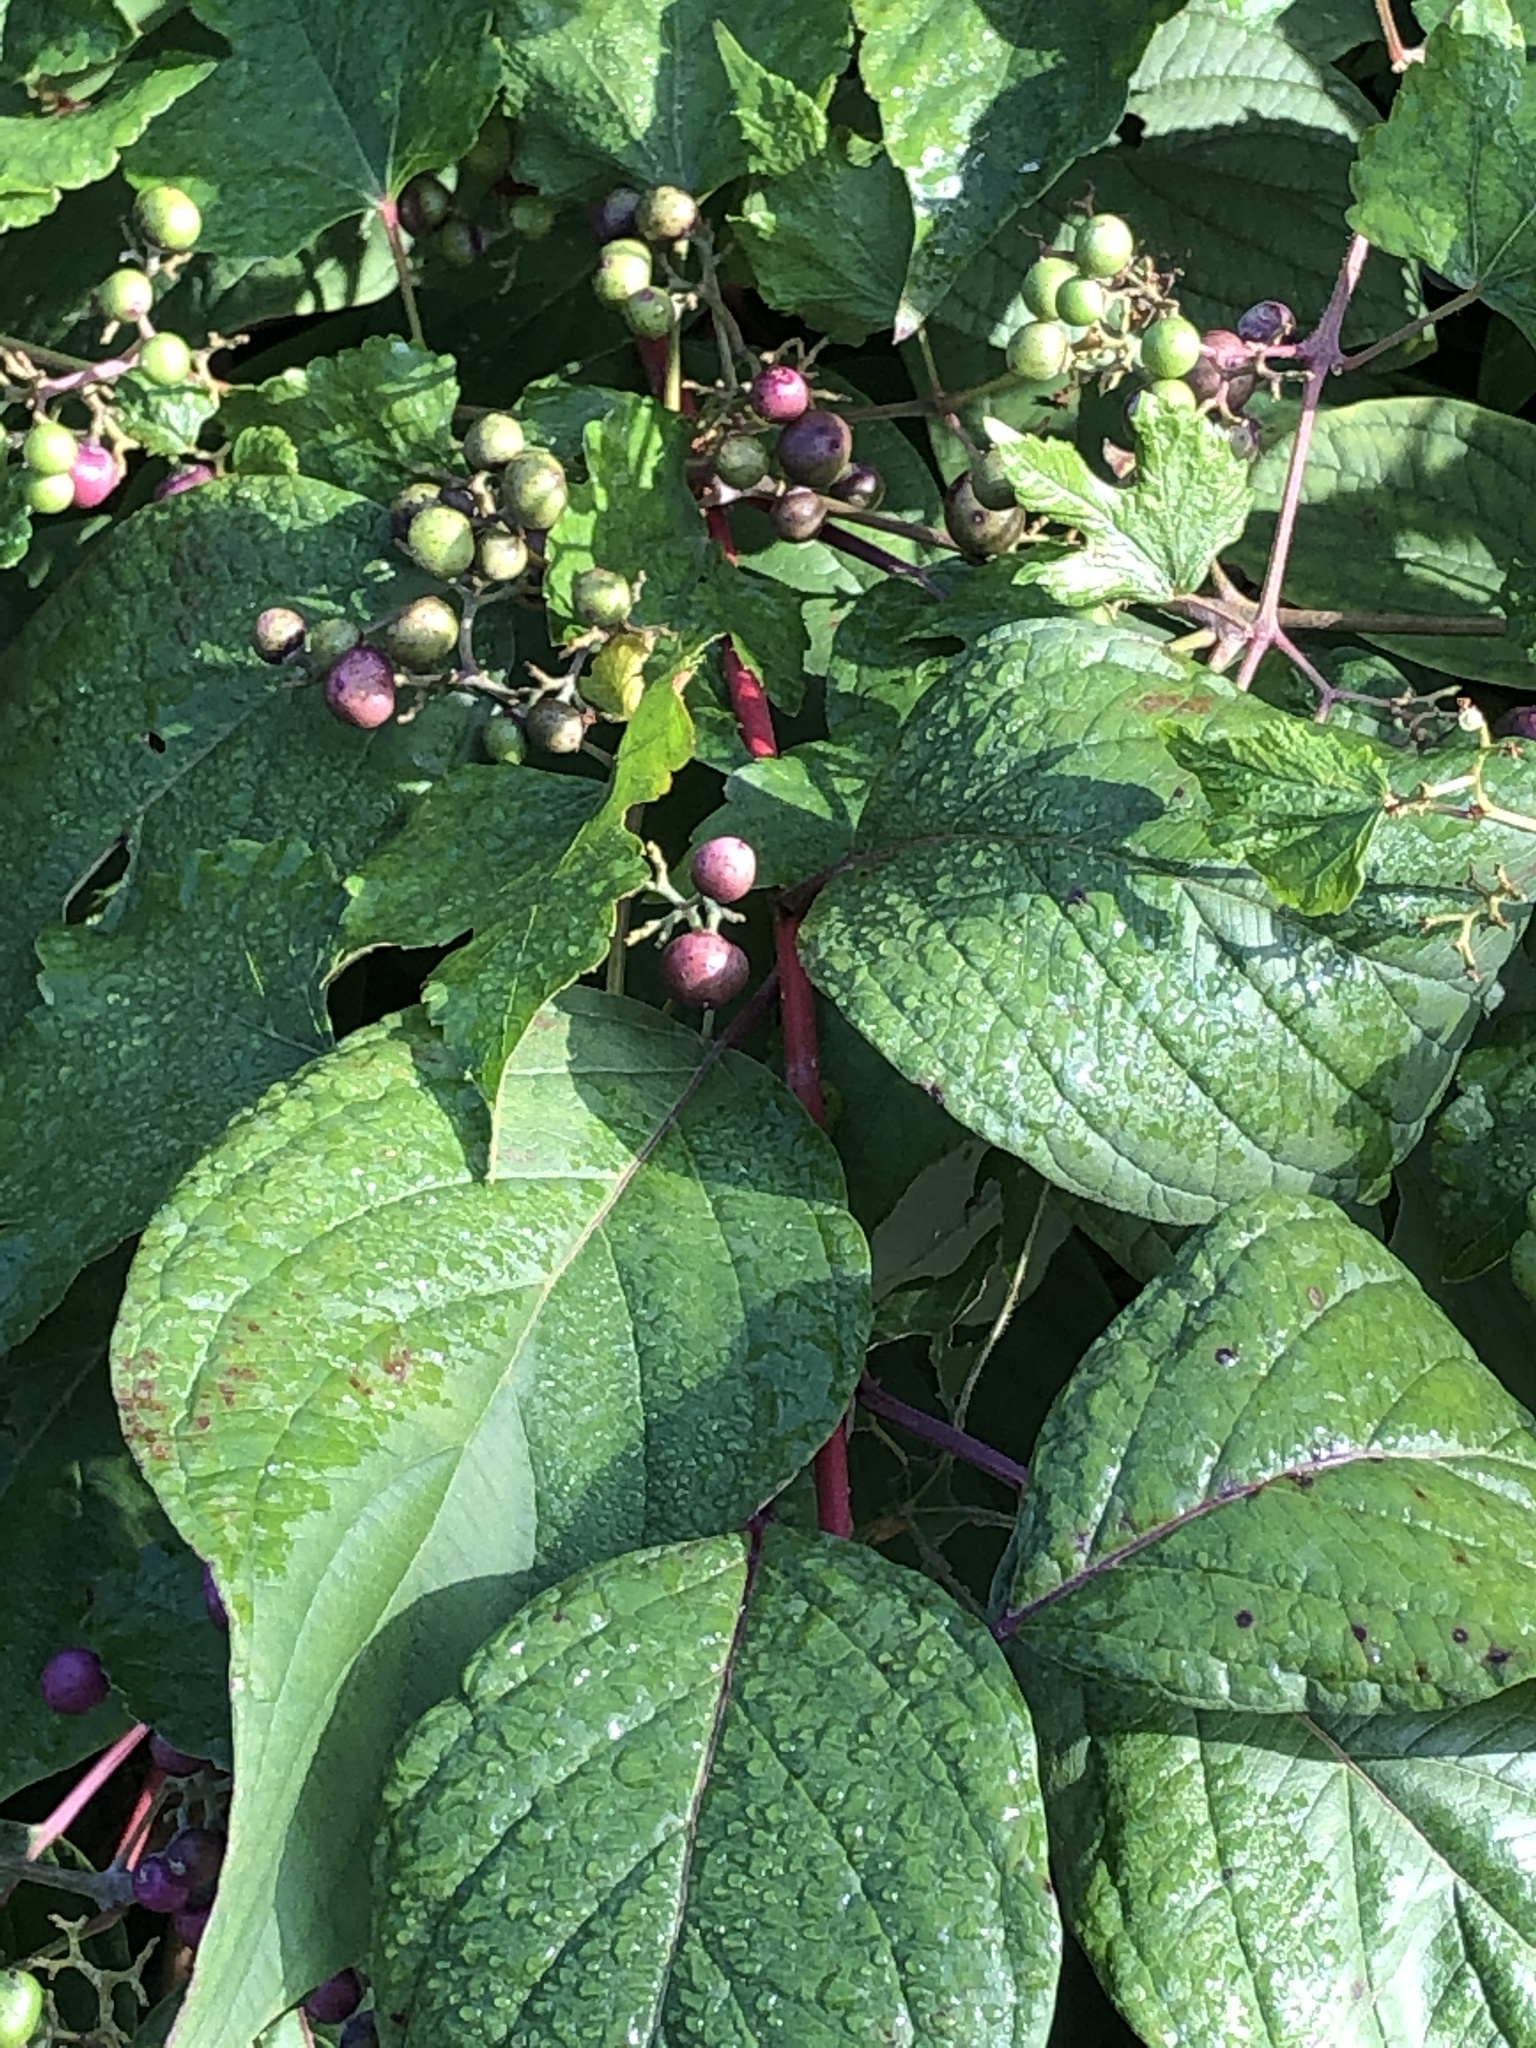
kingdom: Plantae
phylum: Tracheophyta
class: Magnoliopsida
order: Vitales
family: Vitaceae
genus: Ampelopsis
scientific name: Ampelopsis glandulosa
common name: Amur peppervine
